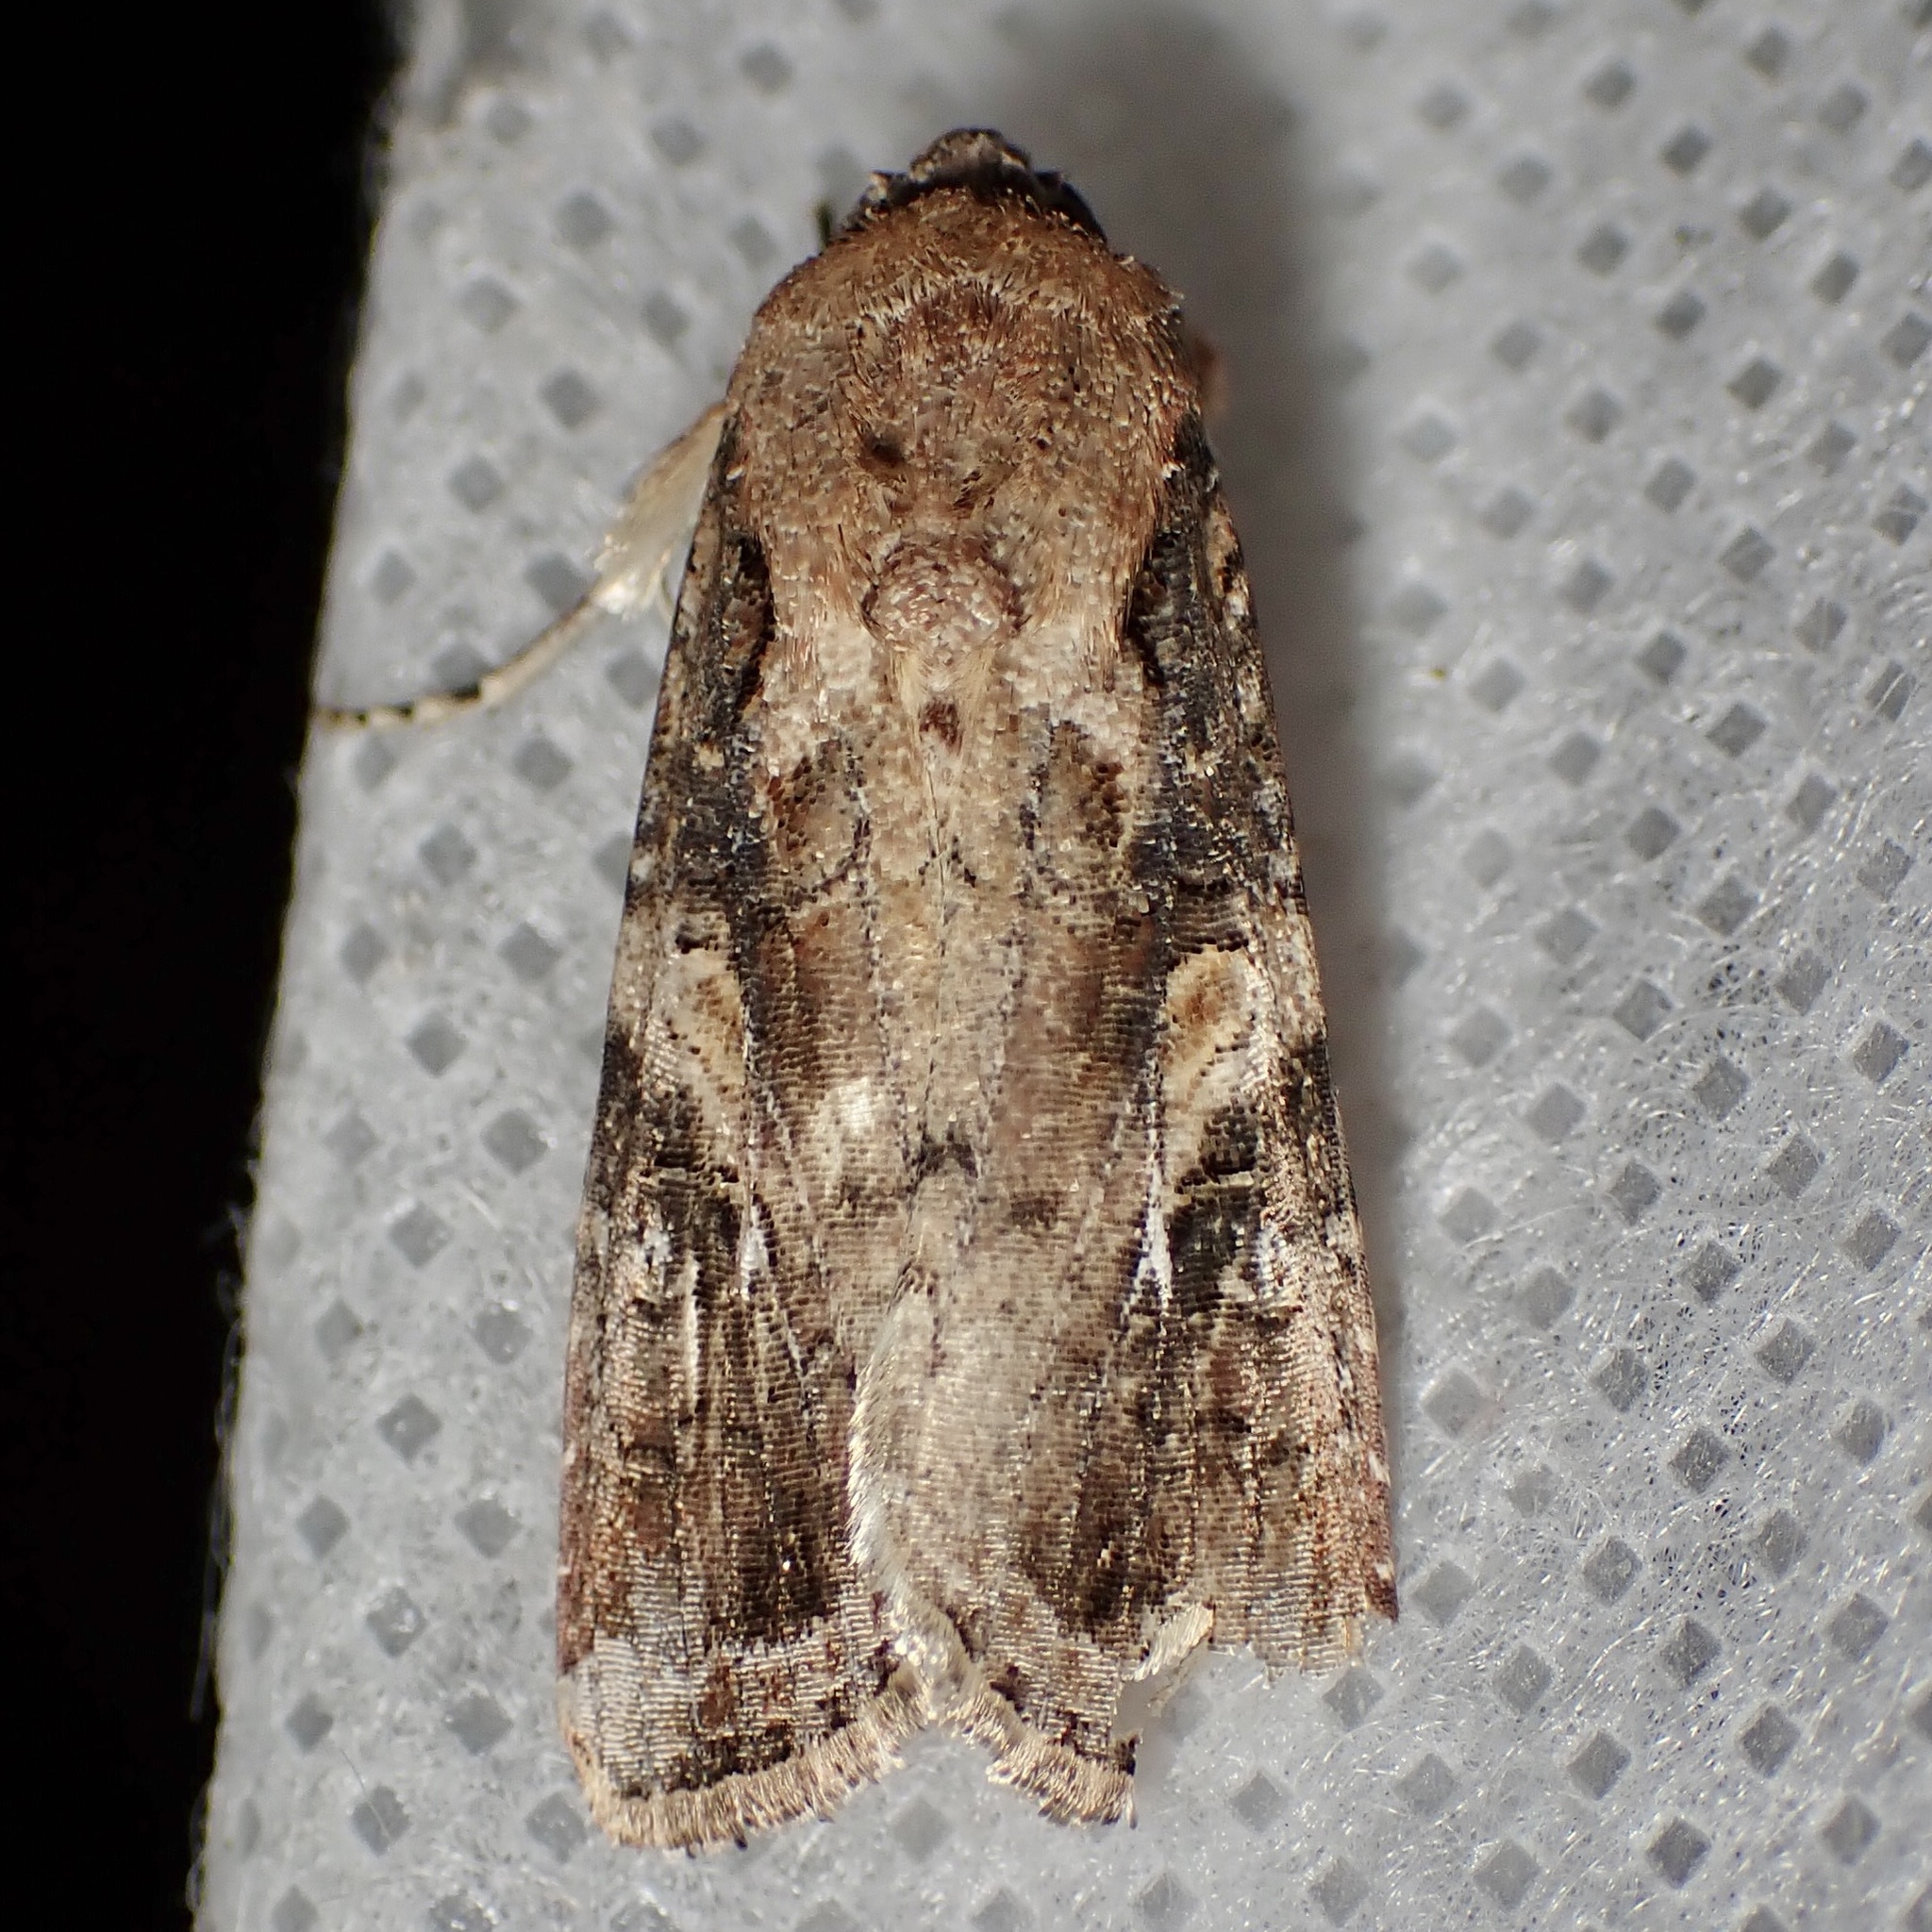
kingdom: Animalia
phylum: Arthropoda
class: Insecta
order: Lepidoptera
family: Noctuidae
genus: Spodoptera
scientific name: Spodoptera ornithogalli
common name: Yellow-striped armyworm
